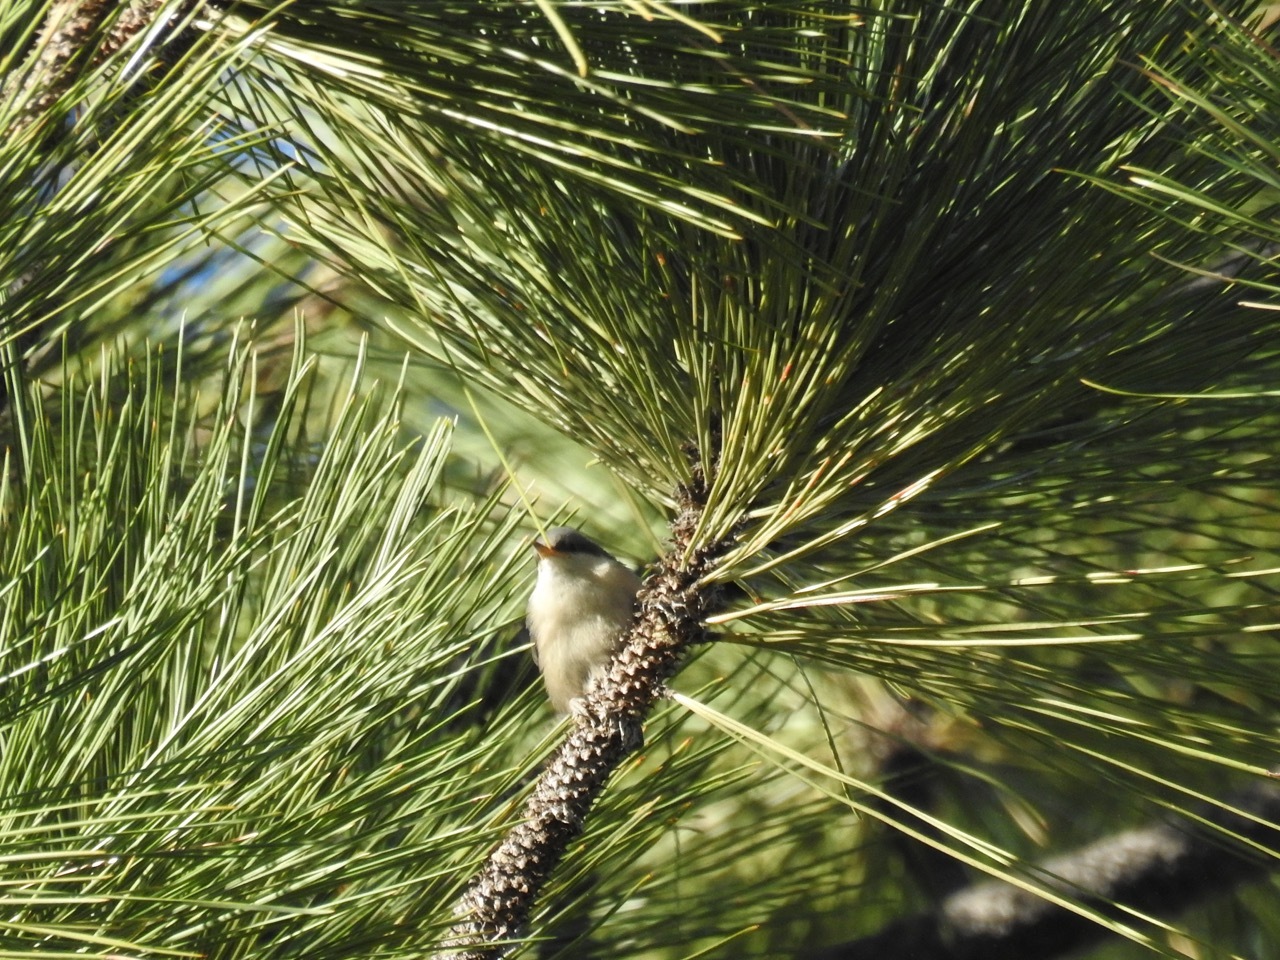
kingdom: Animalia
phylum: Chordata
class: Aves
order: Passeriformes
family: Sittidae
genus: Sitta
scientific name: Sitta pygmaea
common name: Pygmy nuthatch
